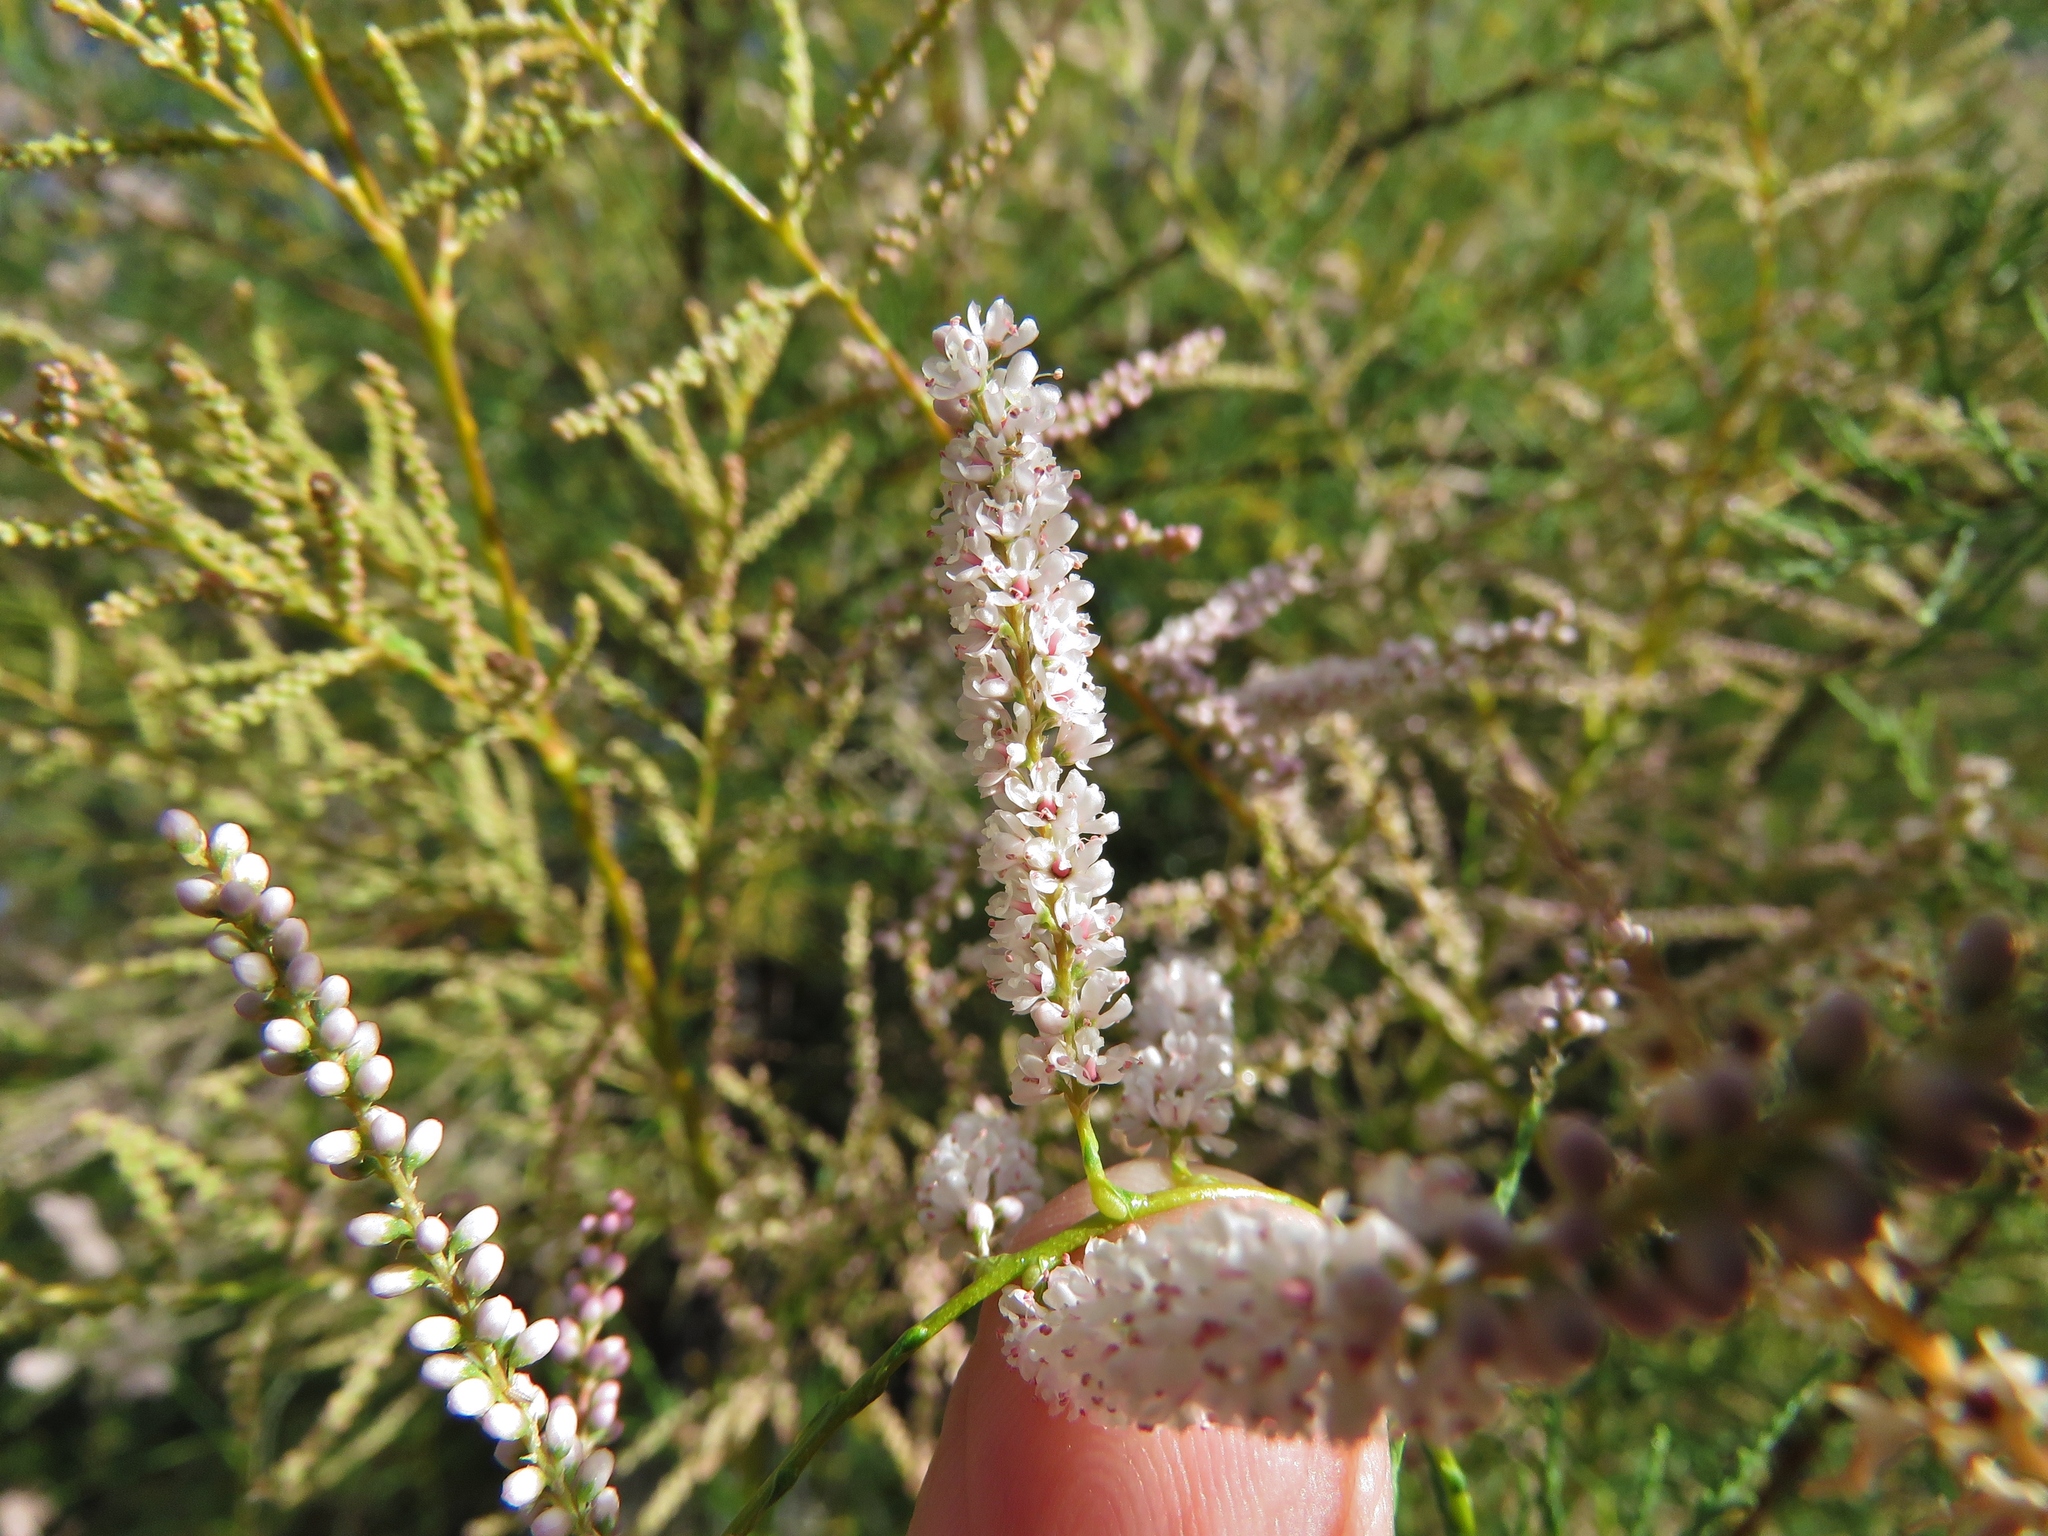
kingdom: Plantae
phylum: Tracheophyta
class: Magnoliopsida
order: Caryophyllales
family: Tamaricaceae
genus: Tamarix
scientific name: Tamarix
